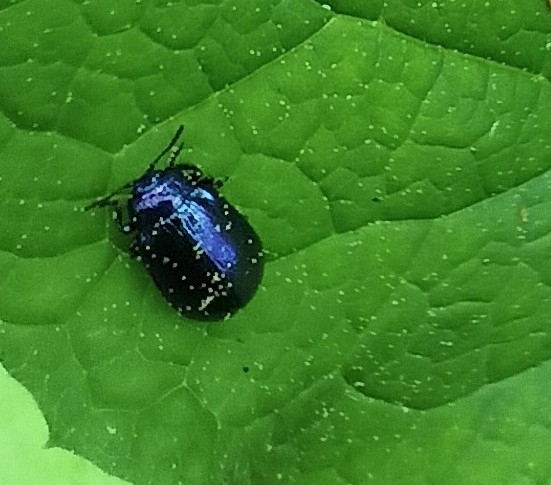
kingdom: Animalia
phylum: Arthropoda
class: Insecta
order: Coleoptera
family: Chrysomelidae
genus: Plagiosterna
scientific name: Plagiosterna aenea
